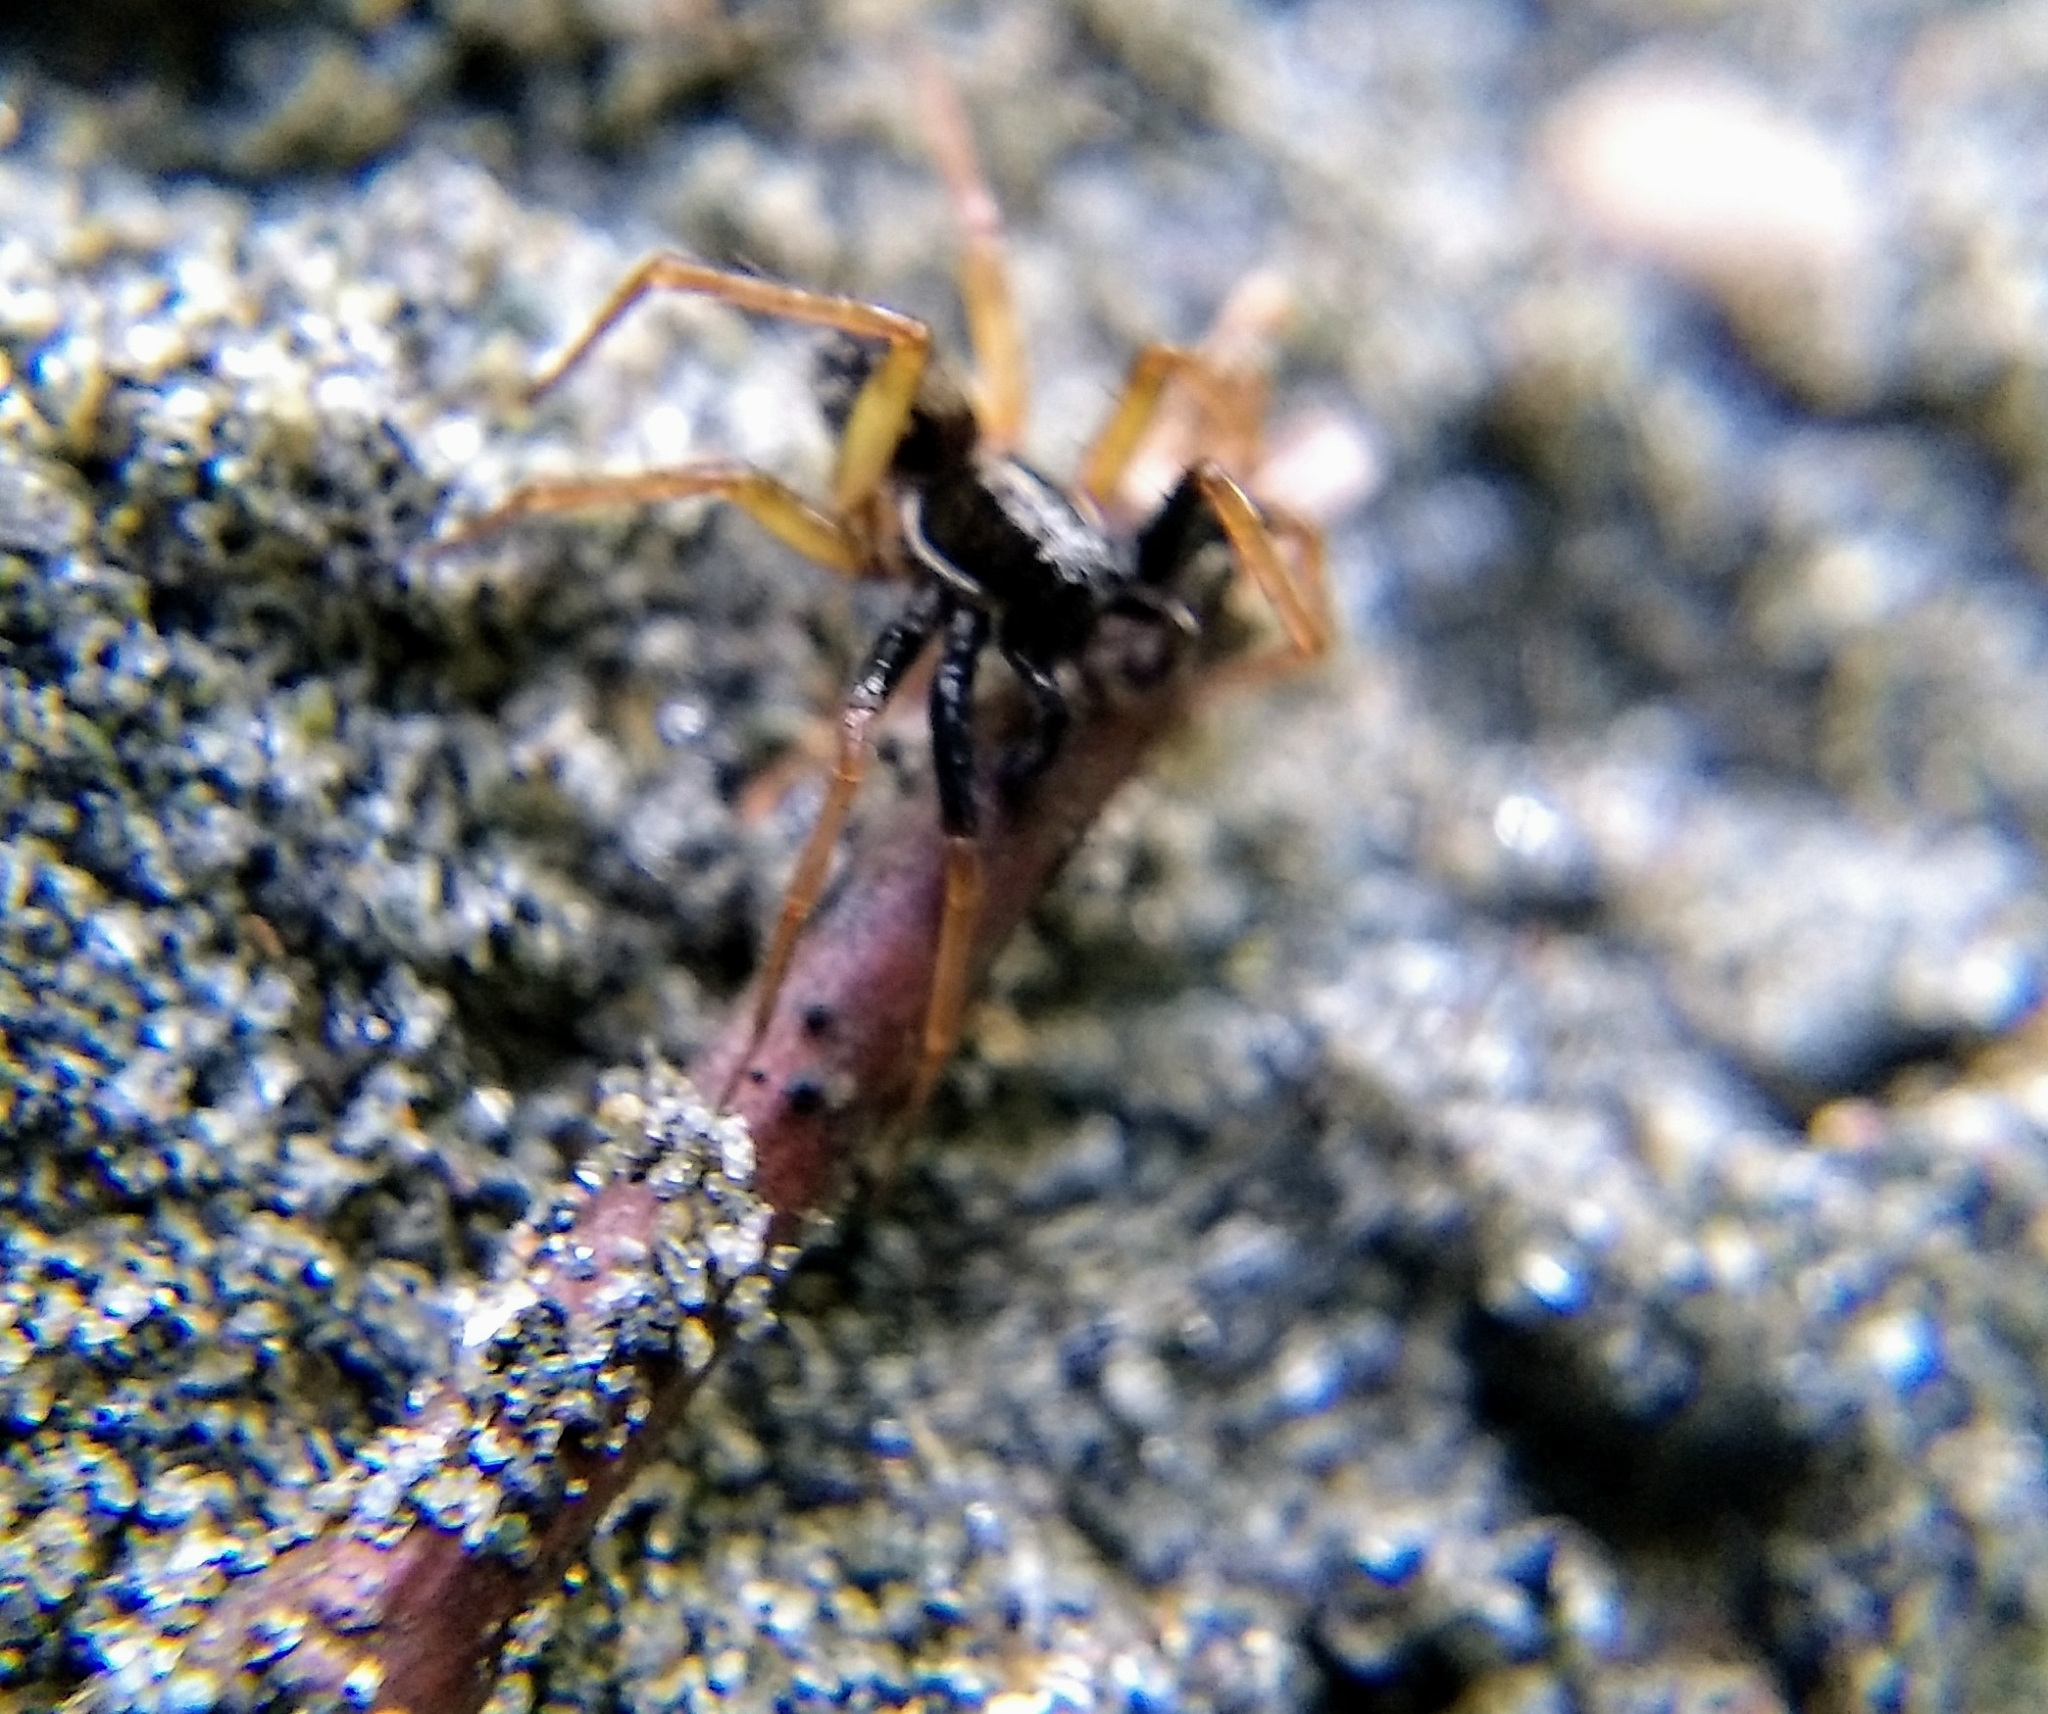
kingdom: Animalia
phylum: Arthropoda
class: Arachnida
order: Araneae
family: Lycosidae
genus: Pirata
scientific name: Pirata montanus
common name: Dark-legged pirate wolf spider
